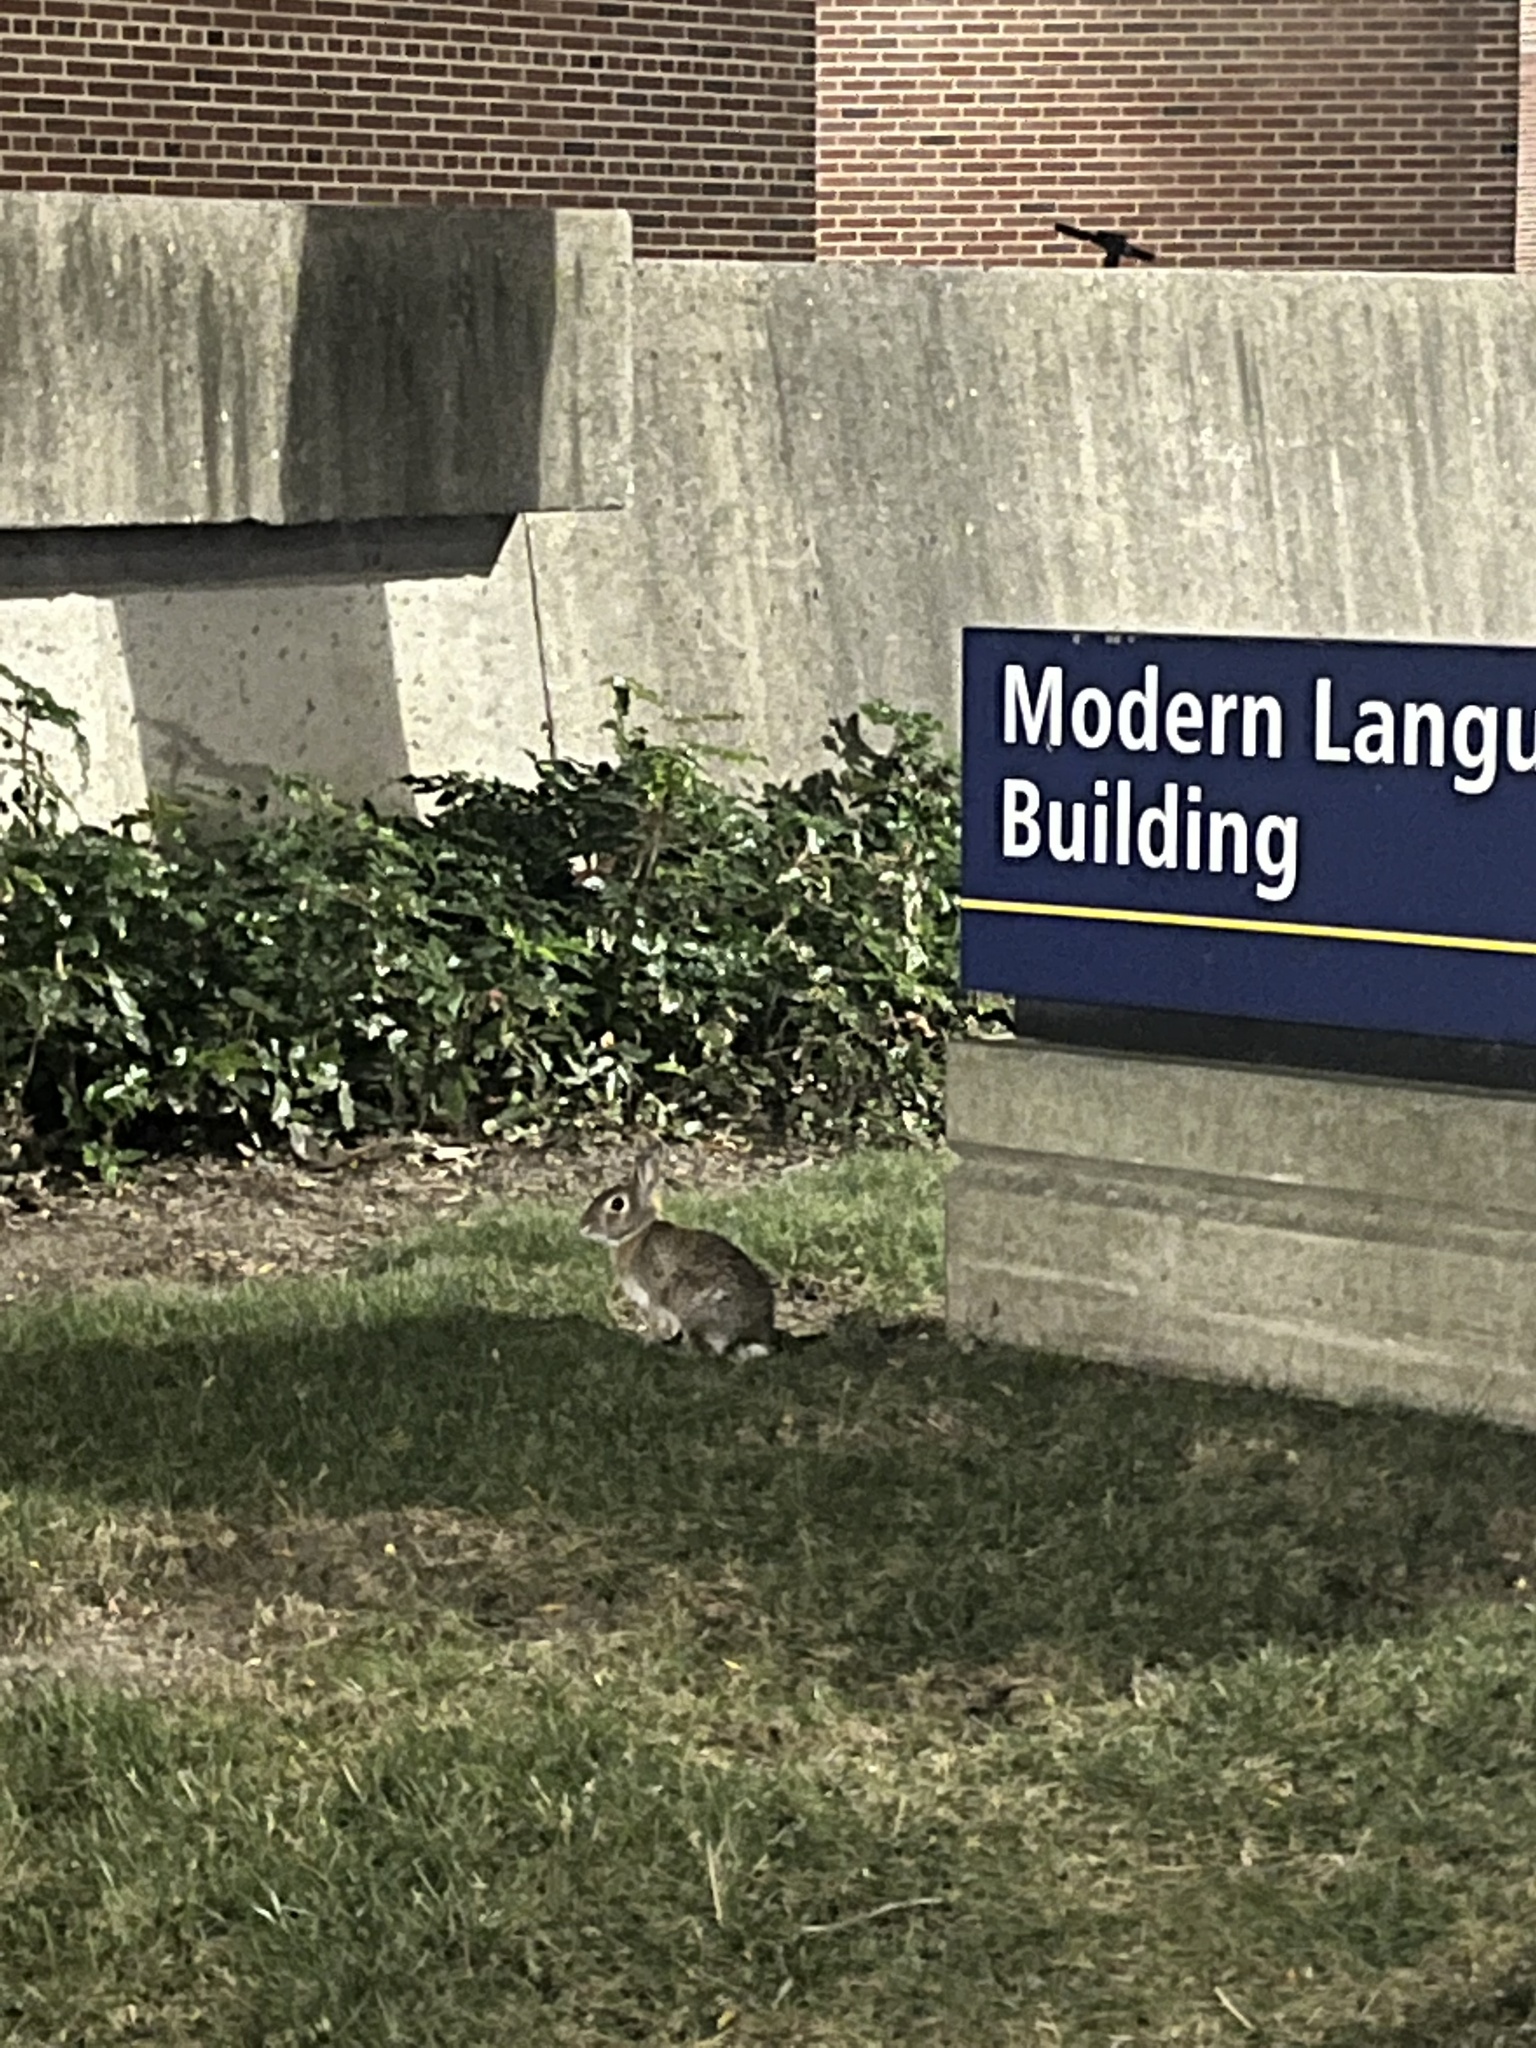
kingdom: Animalia
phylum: Chordata
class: Mammalia
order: Lagomorpha
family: Leporidae
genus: Sylvilagus
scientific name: Sylvilagus floridanus
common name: Eastern cottontail
